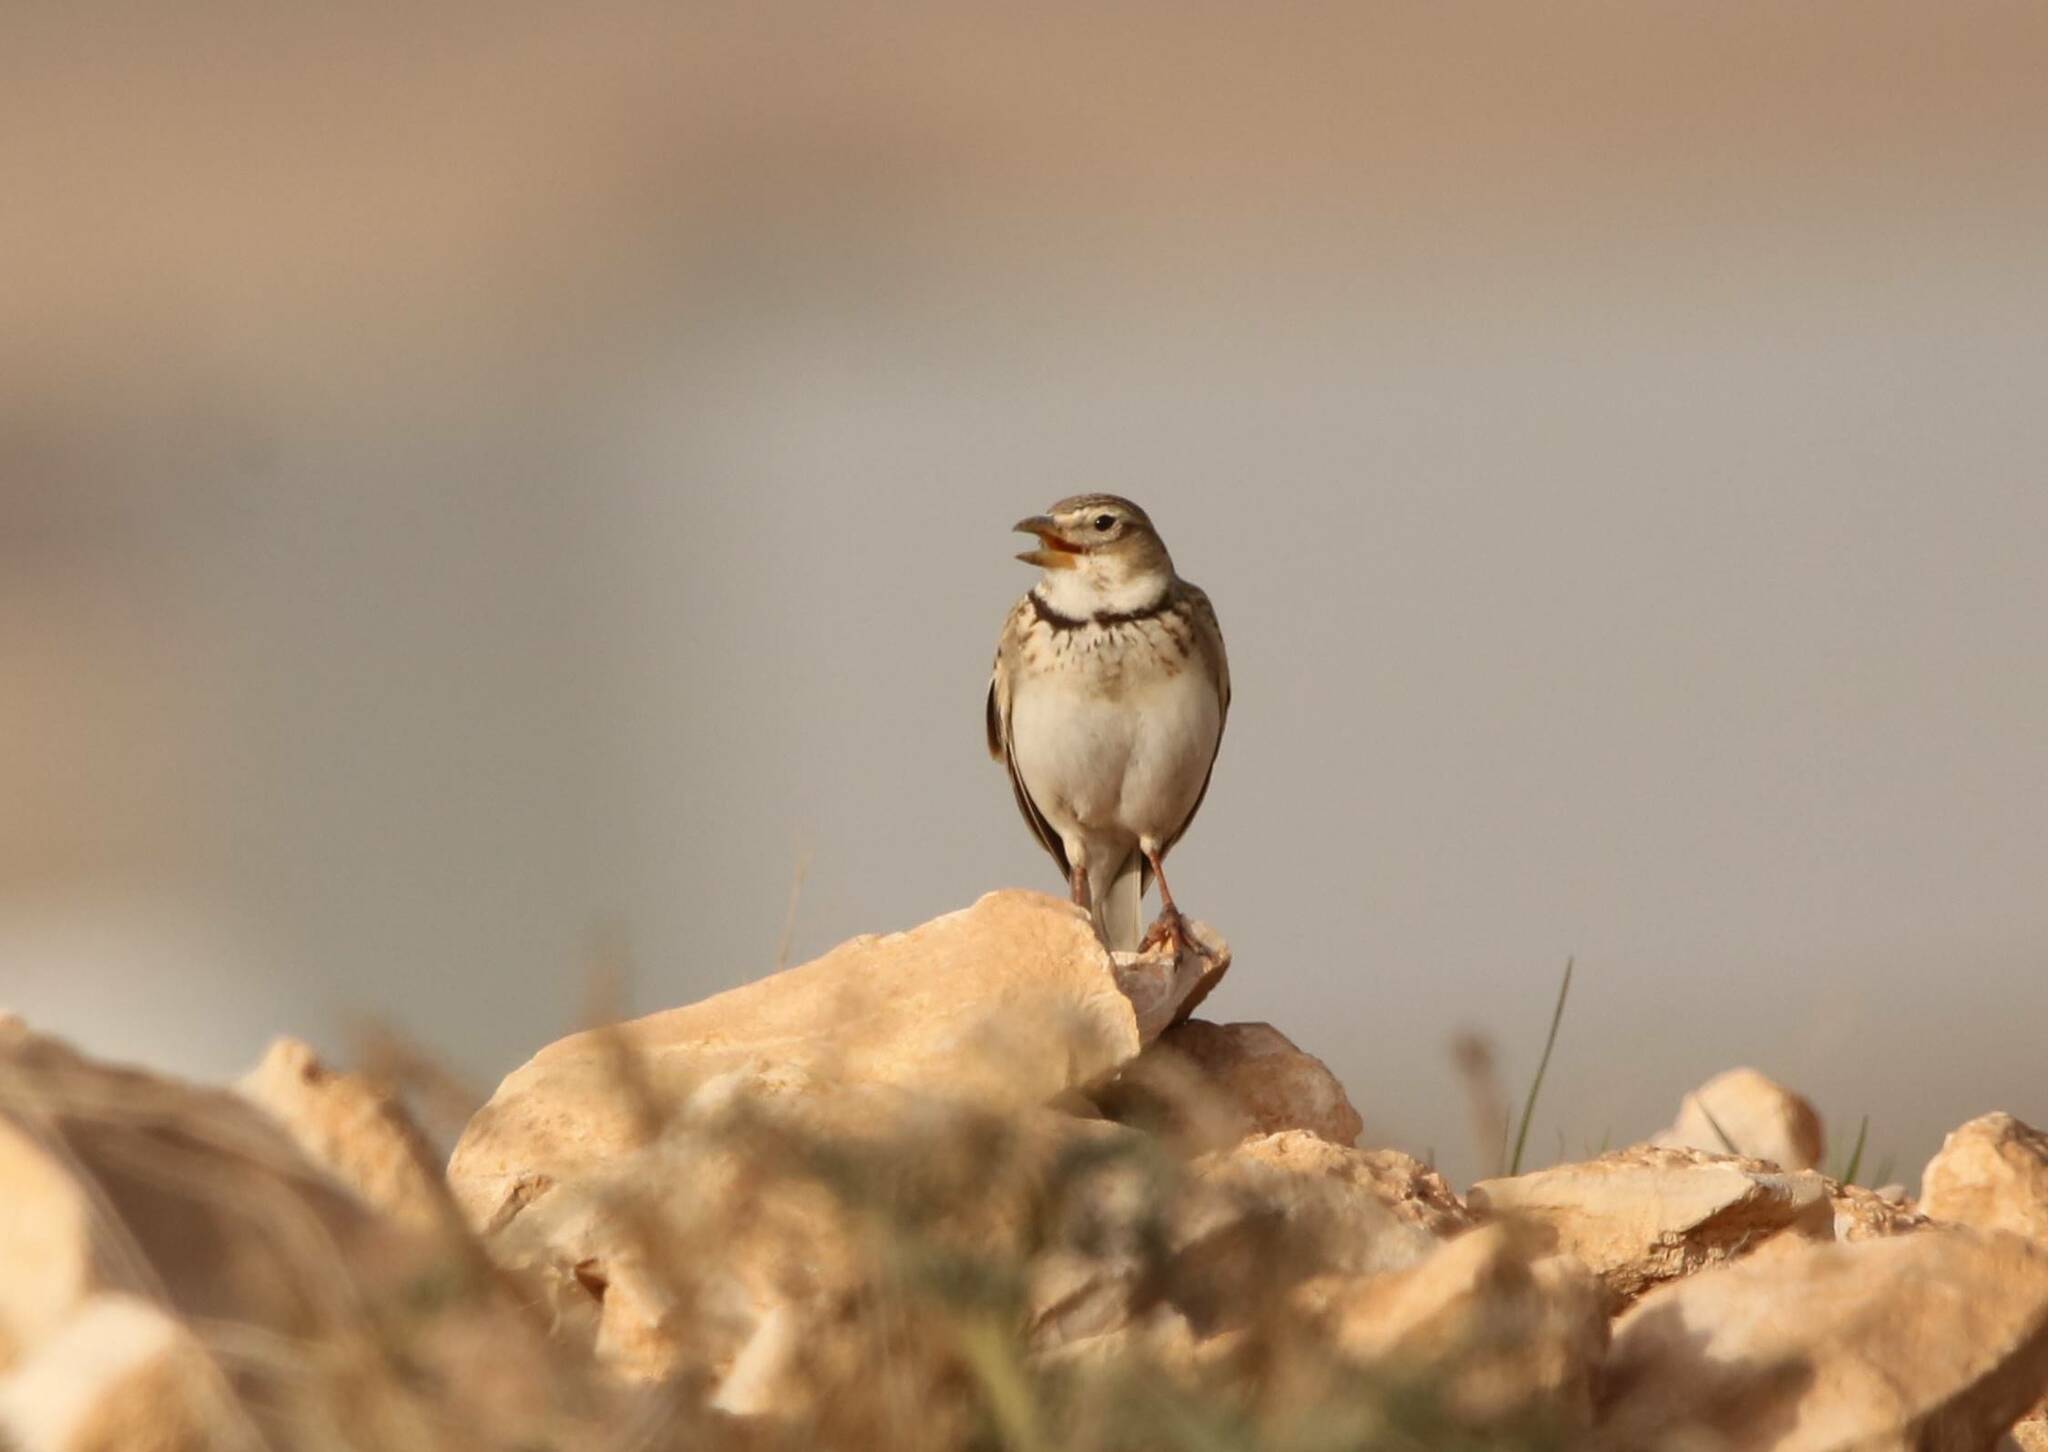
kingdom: Animalia
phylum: Chordata
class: Aves
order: Passeriformes
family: Alaudidae
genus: Melanocorypha
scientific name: Melanocorypha calandra
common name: Calandra lark
